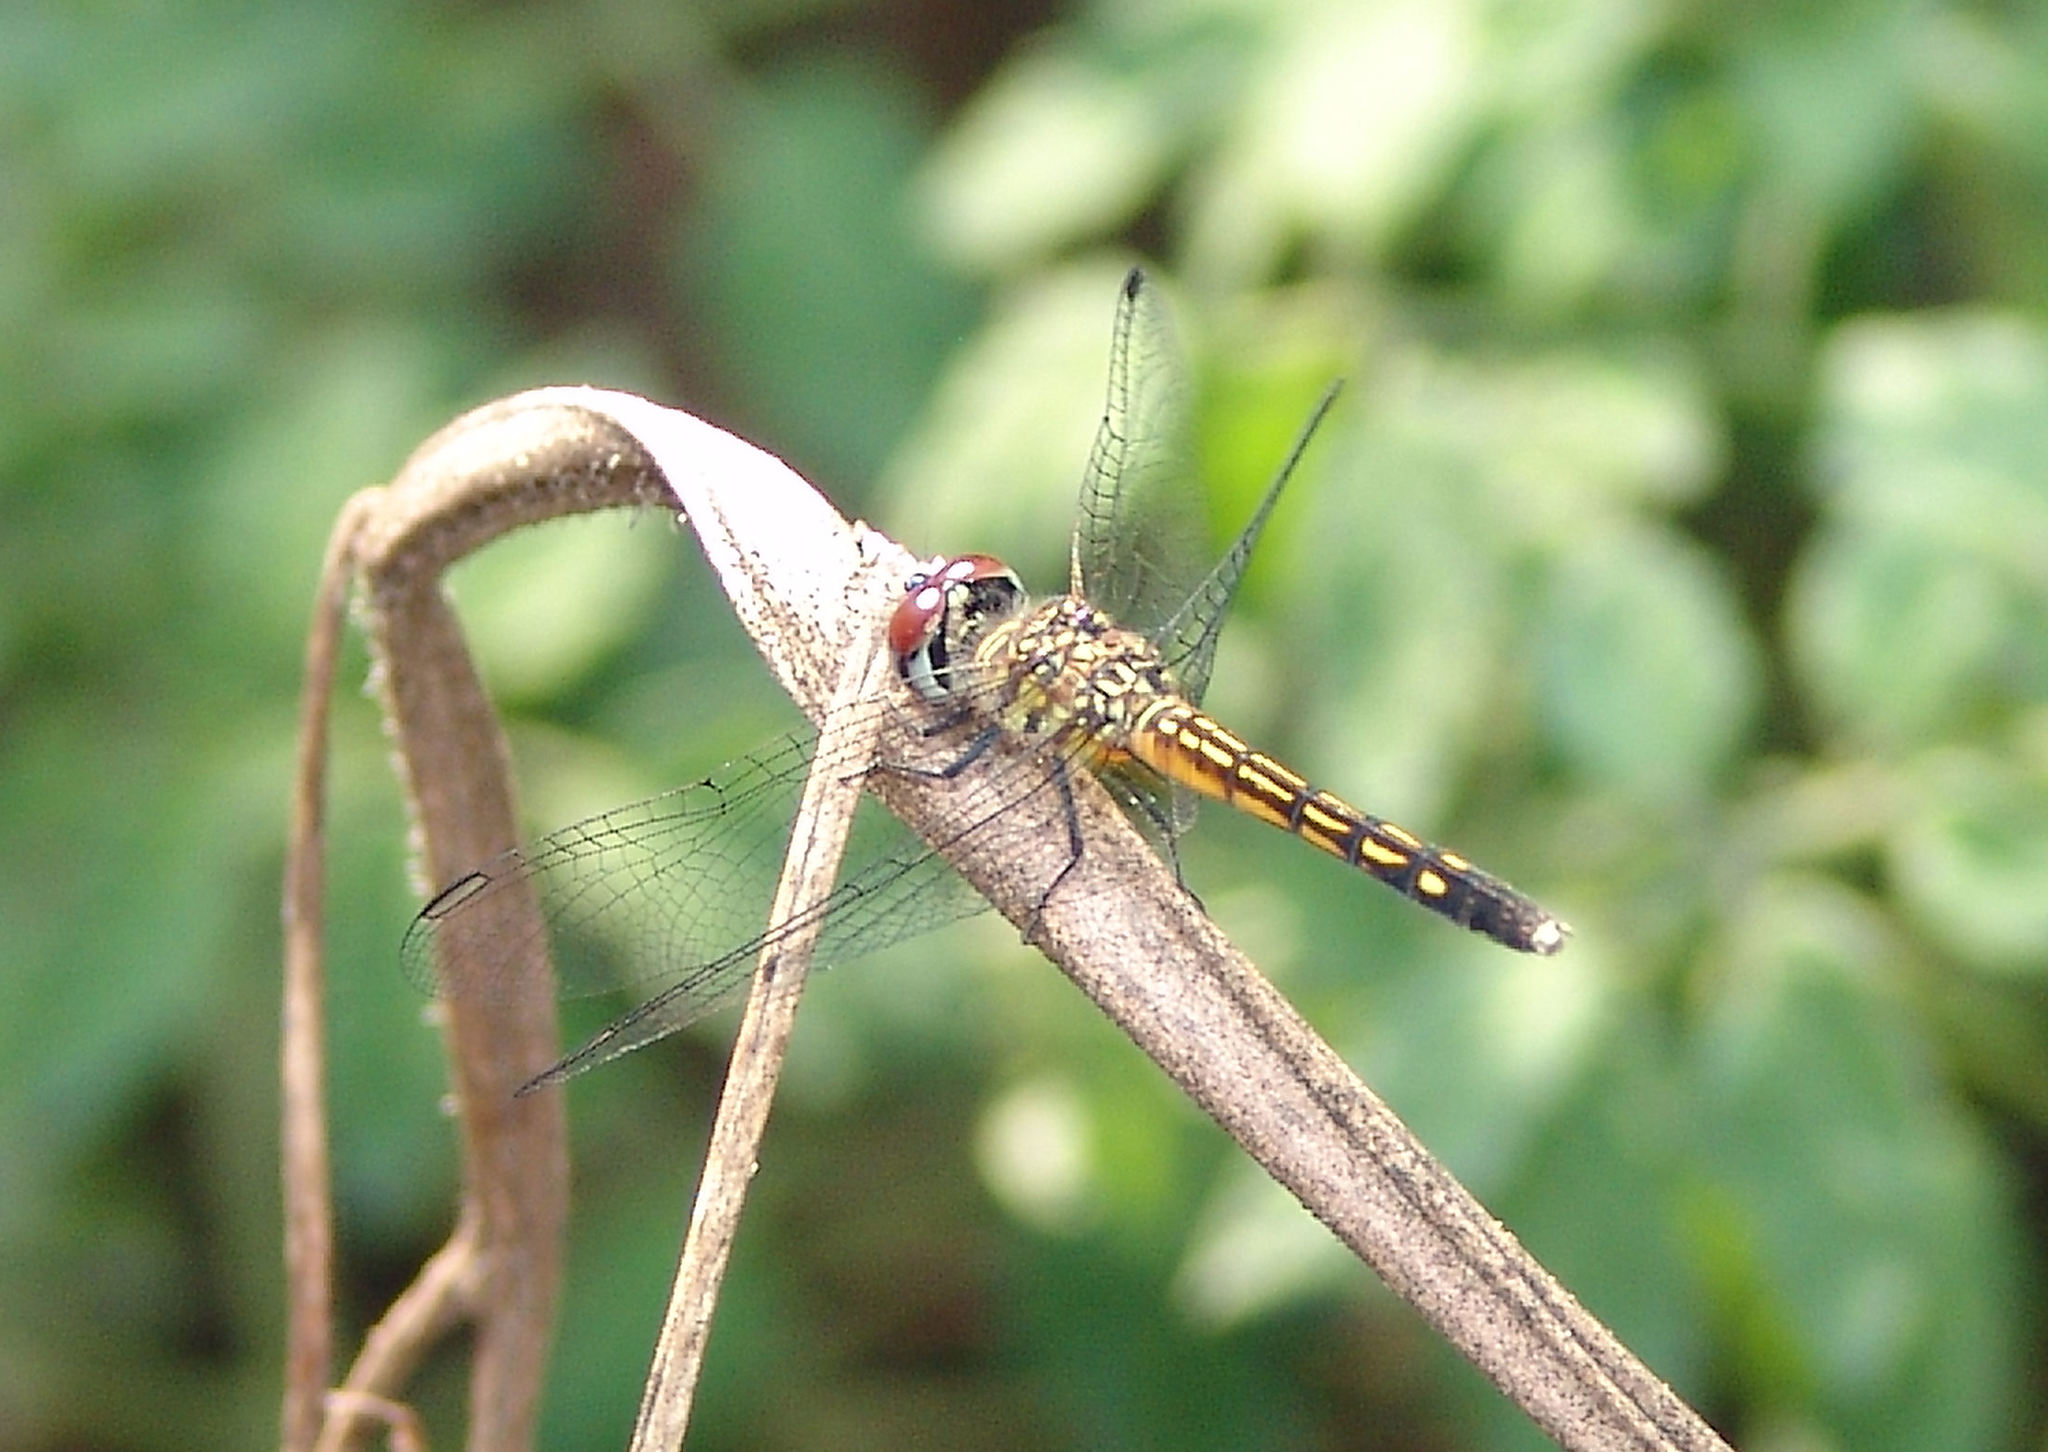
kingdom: Animalia
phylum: Arthropoda
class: Insecta
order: Odonata
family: Libellulidae
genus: Pachydiplax
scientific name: Pachydiplax longipennis
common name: Blue dasher
